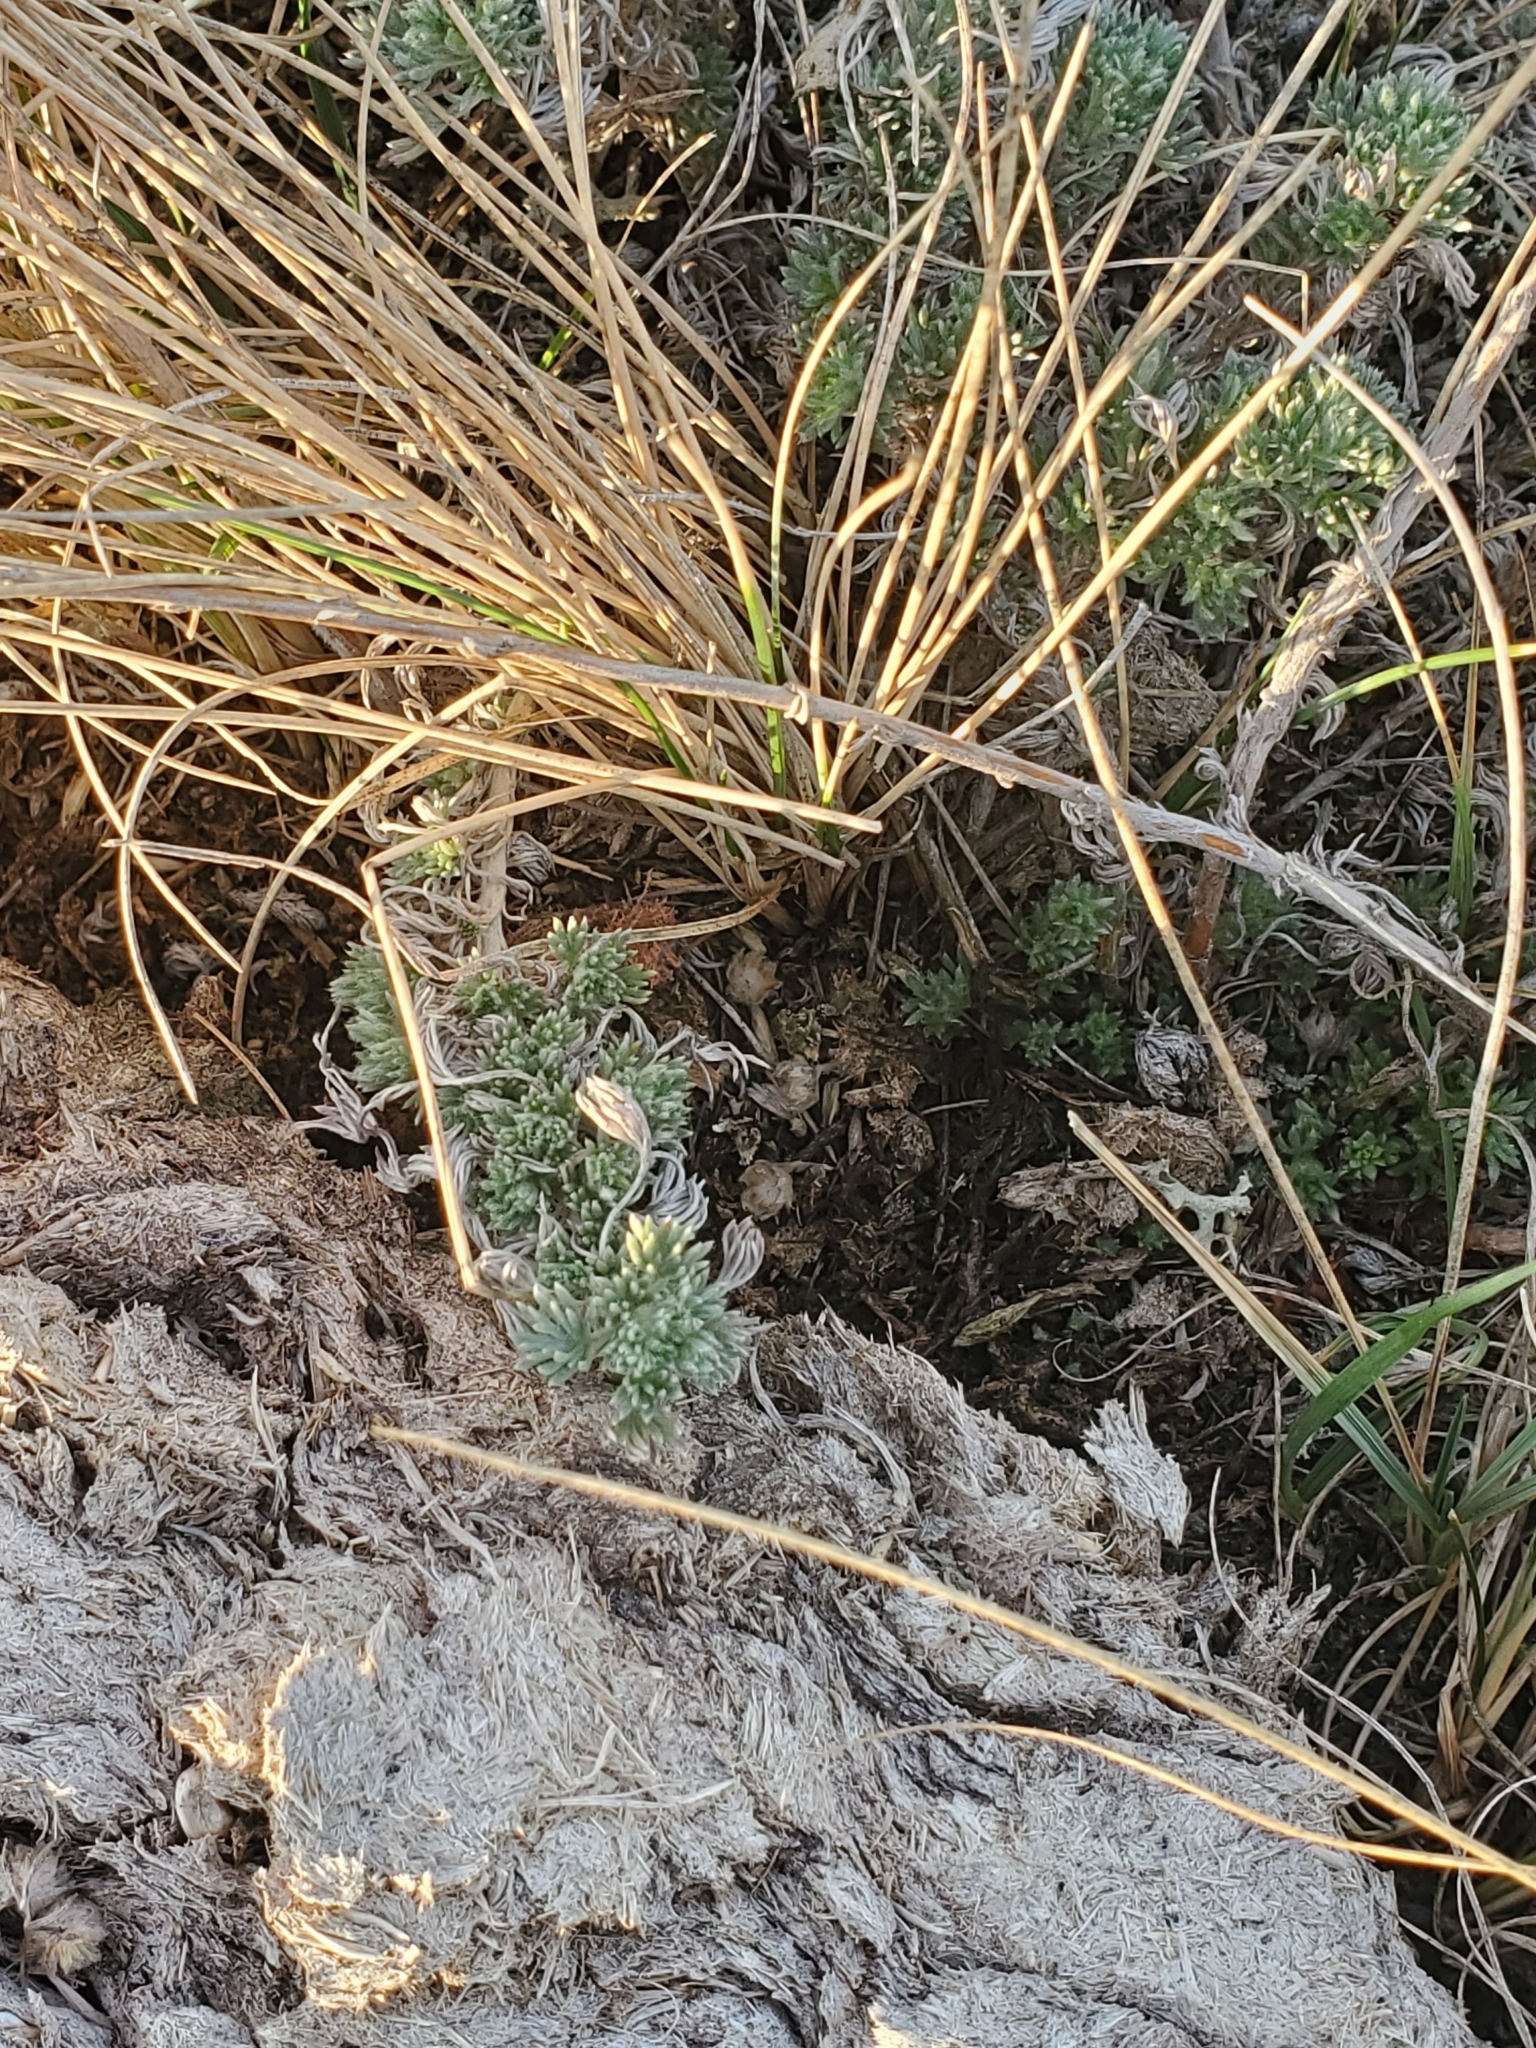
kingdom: Plantae
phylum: Tracheophyta
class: Magnoliopsida
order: Asterales
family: Asteraceae
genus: Artemisia
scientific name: Artemisia frigida
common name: Prairie sagewort
